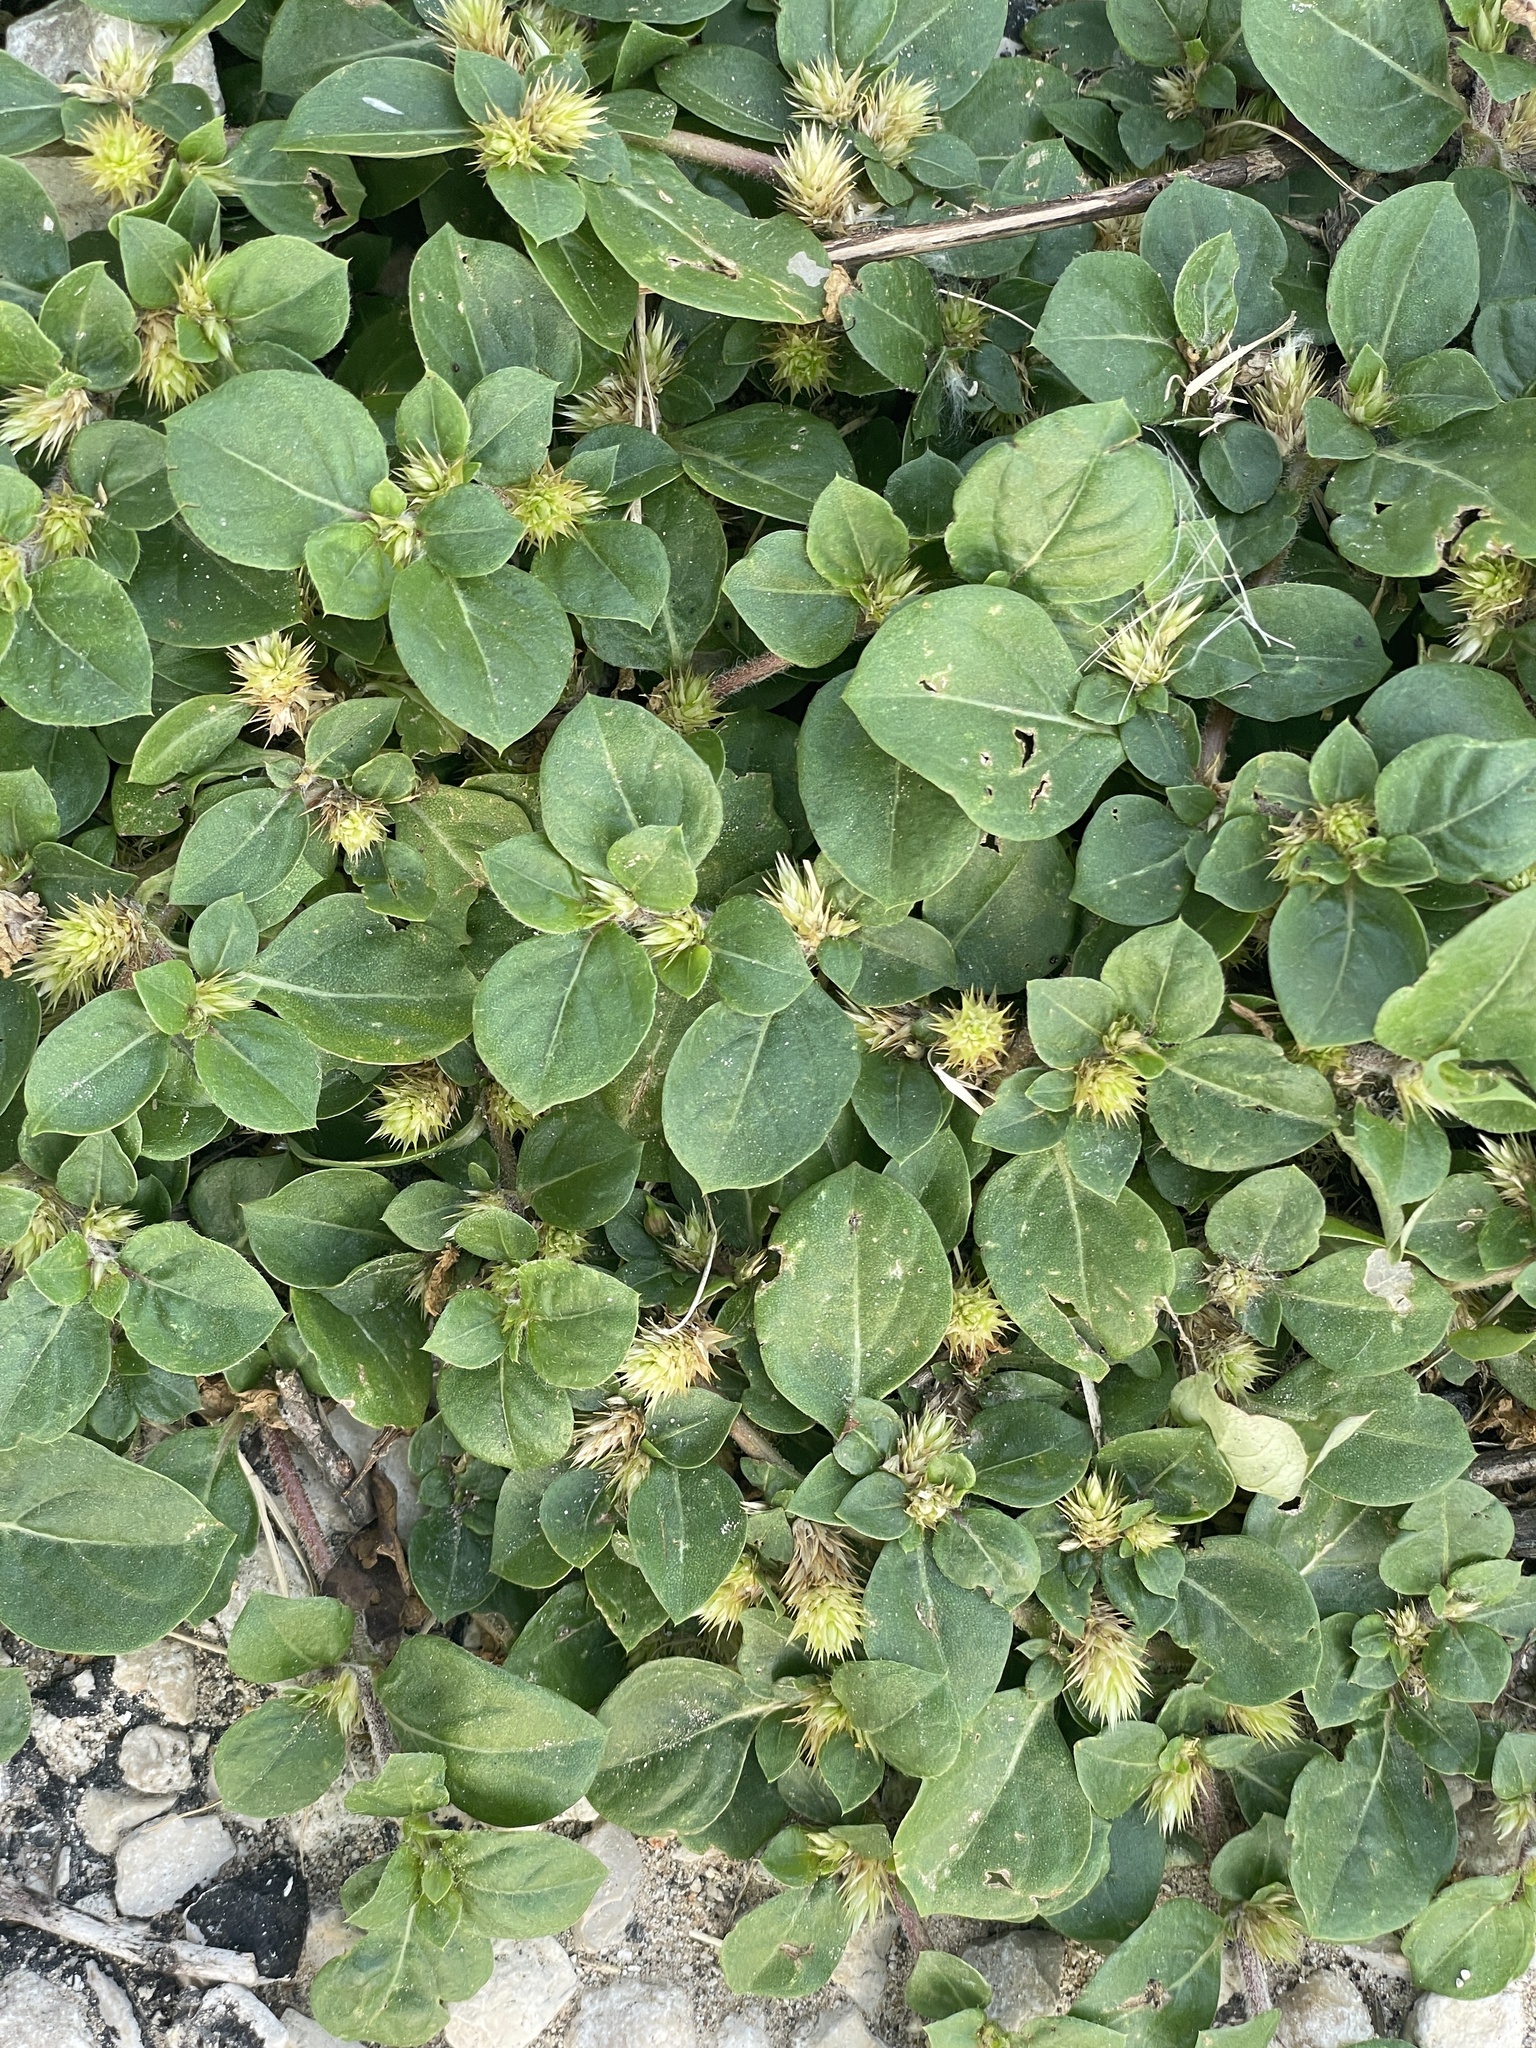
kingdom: Plantae
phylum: Tracheophyta
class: Magnoliopsida
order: Caryophyllales
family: Amaranthaceae
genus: Alternanthera
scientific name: Alternanthera pungens
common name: Khakiweed
